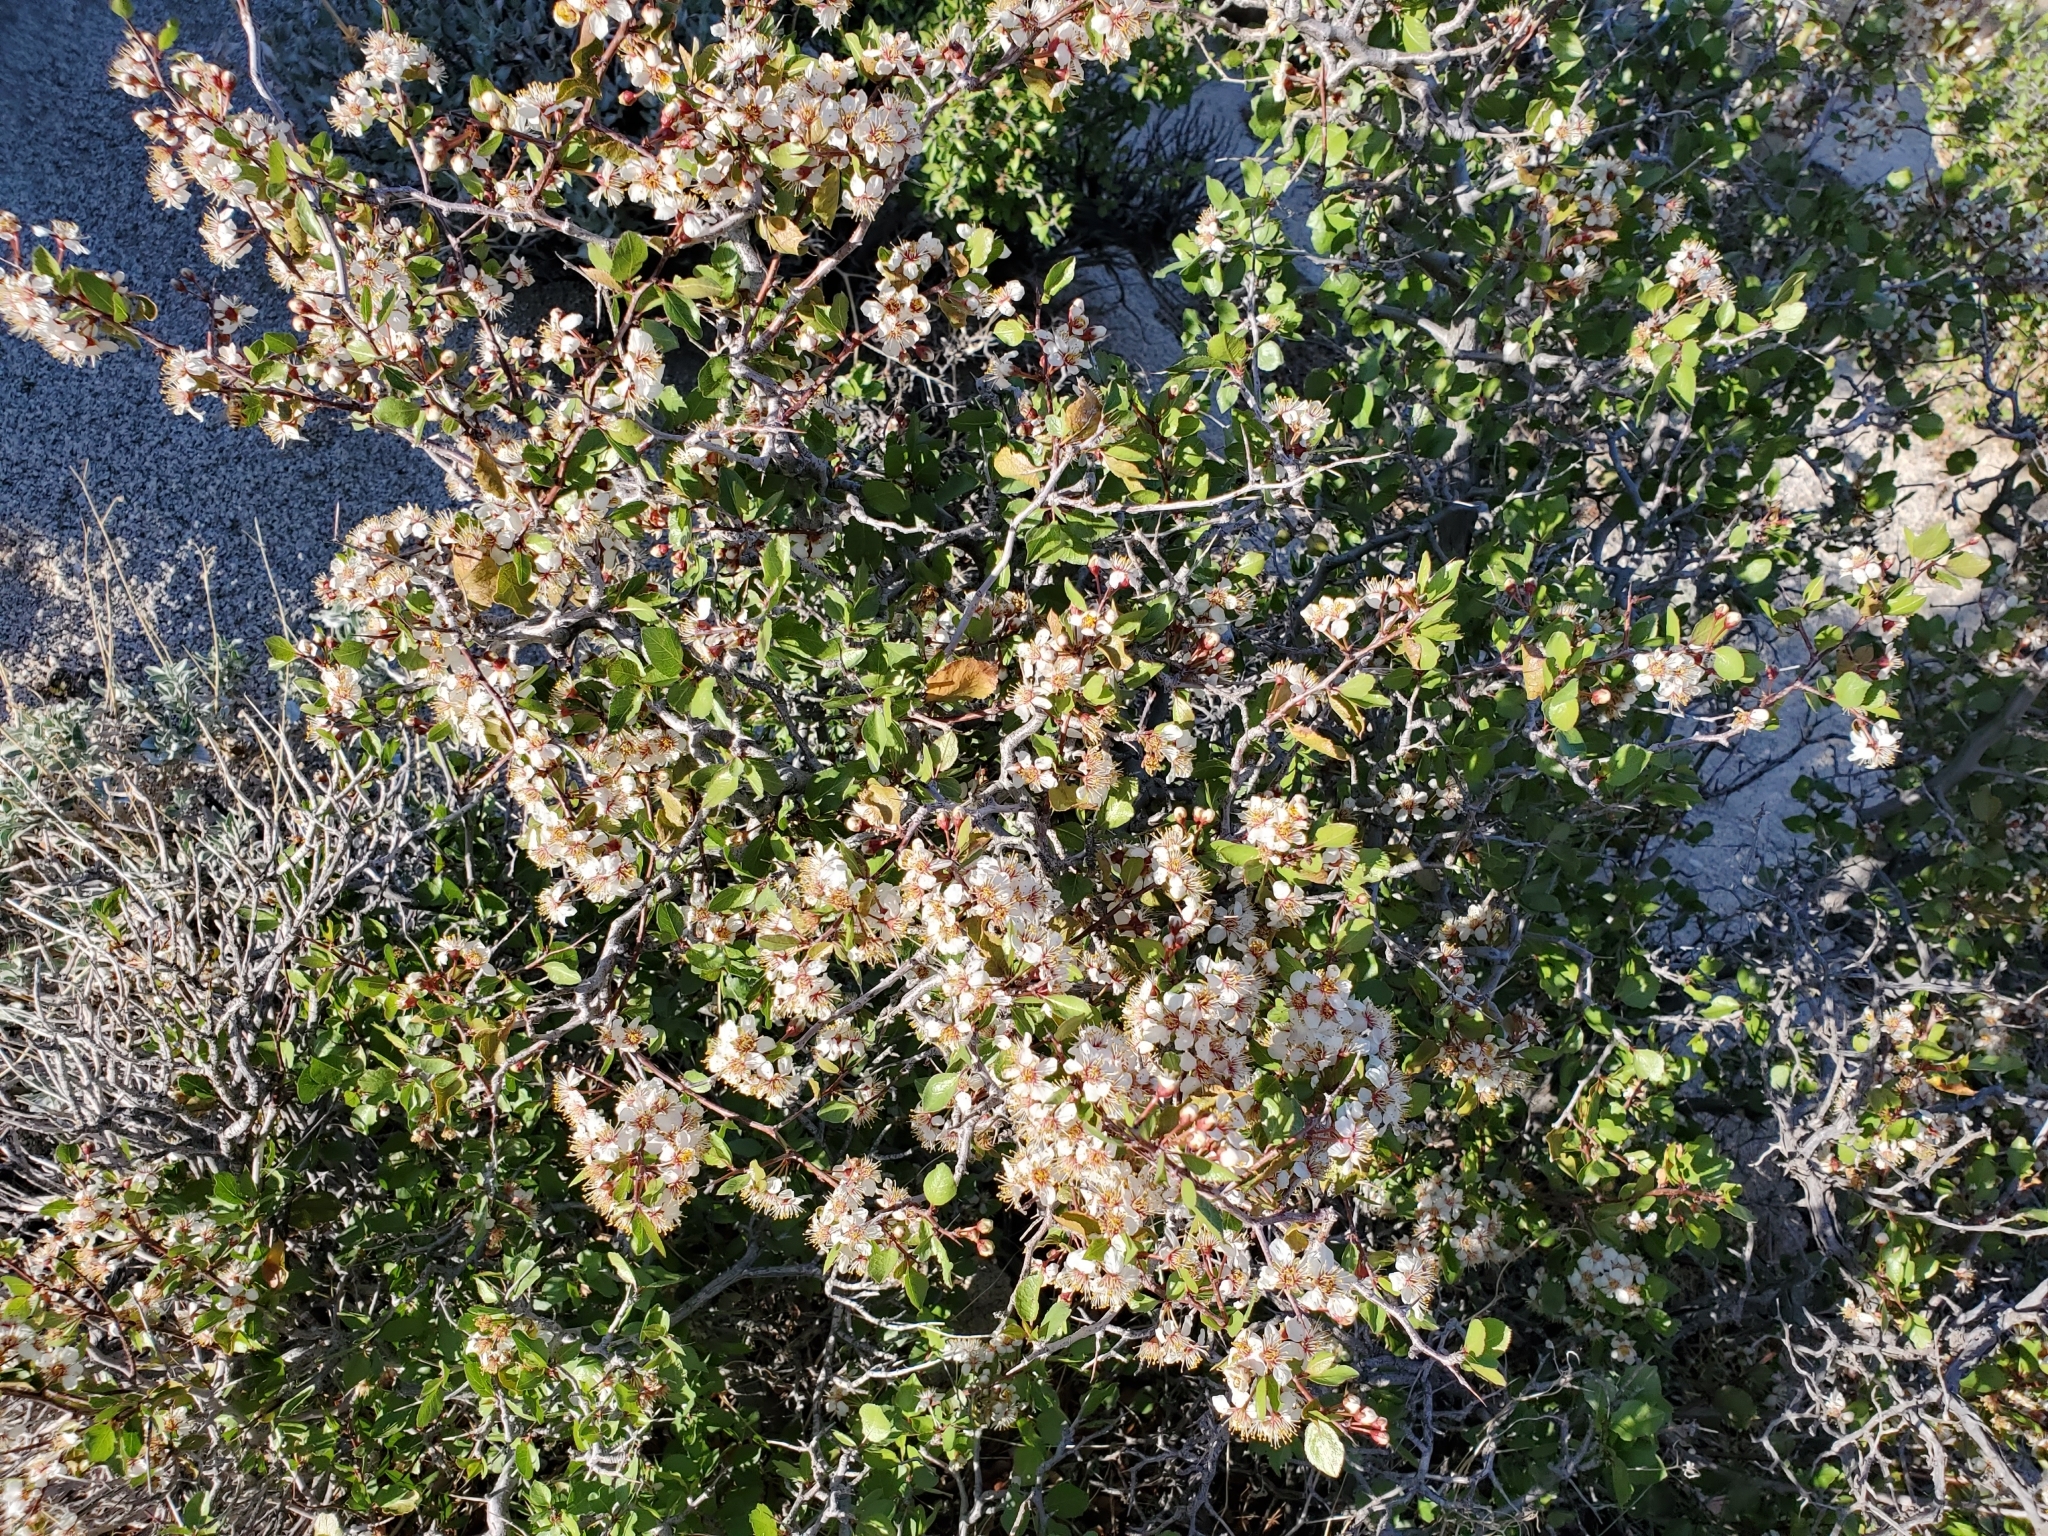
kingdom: Plantae
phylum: Tracheophyta
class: Magnoliopsida
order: Rosales
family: Rosaceae
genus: Prunus
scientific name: Prunus fremontii
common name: Desert apricot
